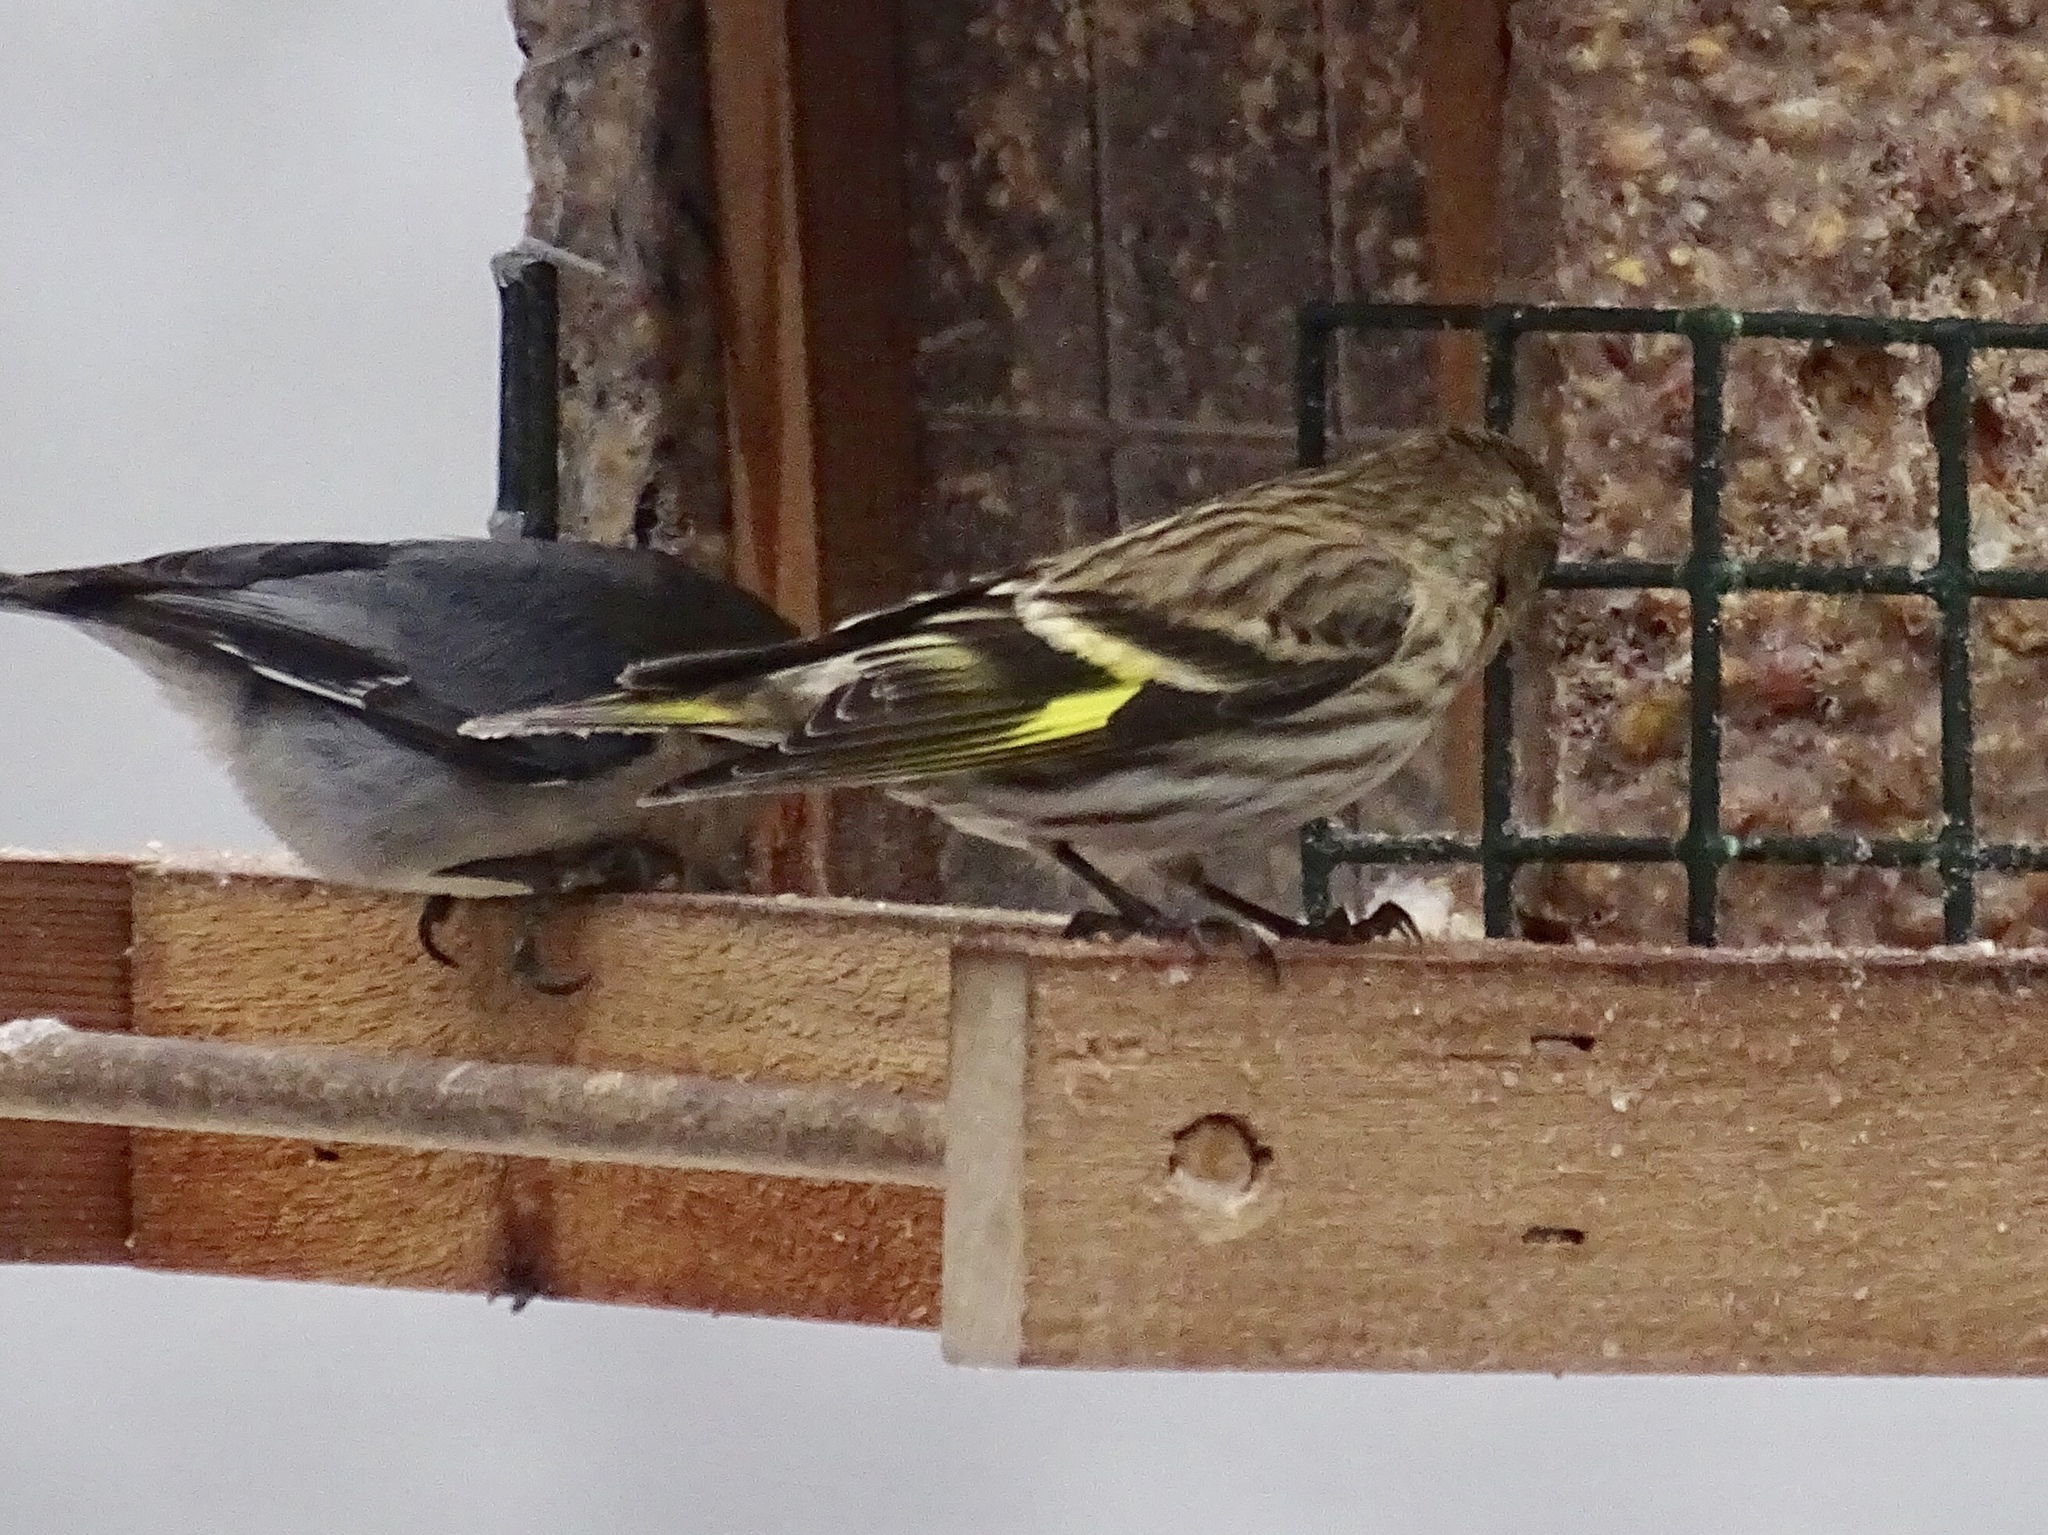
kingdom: Animalia
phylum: Chordata
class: Aves
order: Passeriformes
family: Fringillidae
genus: Spinus
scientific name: Spinus pinus
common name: Pine siskin
